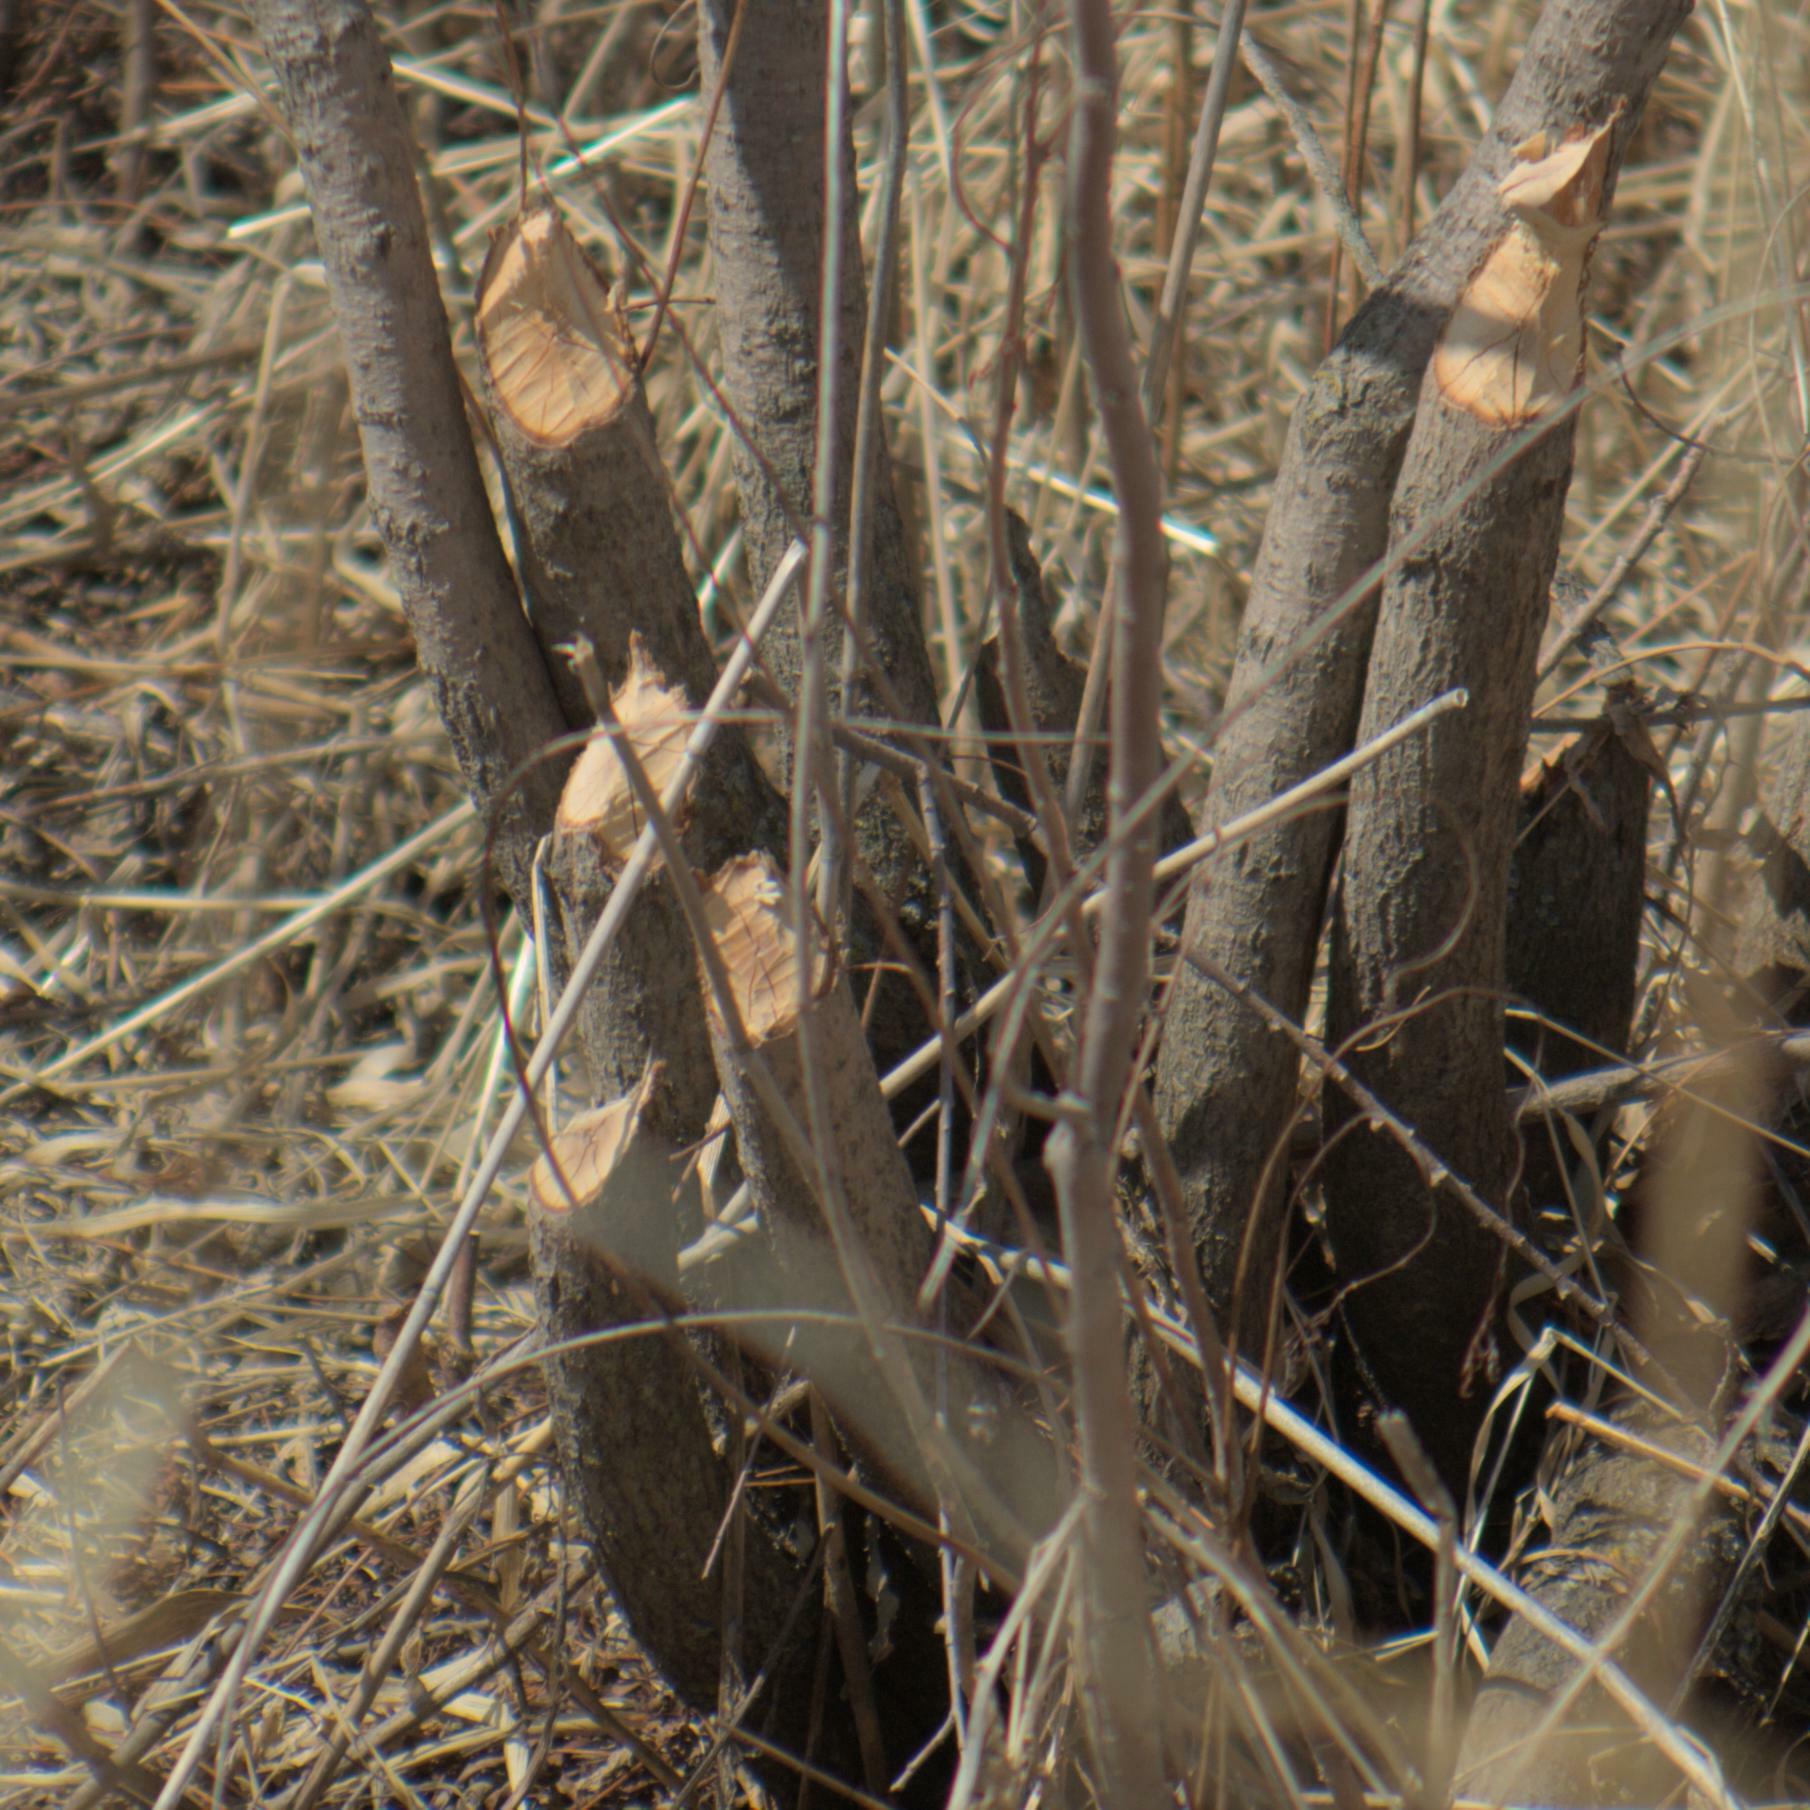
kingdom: Animalia
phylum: Chordata
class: Mammalia
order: Rodentia
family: Castoridae
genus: Castor
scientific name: Castor canadensis
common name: American beaver
